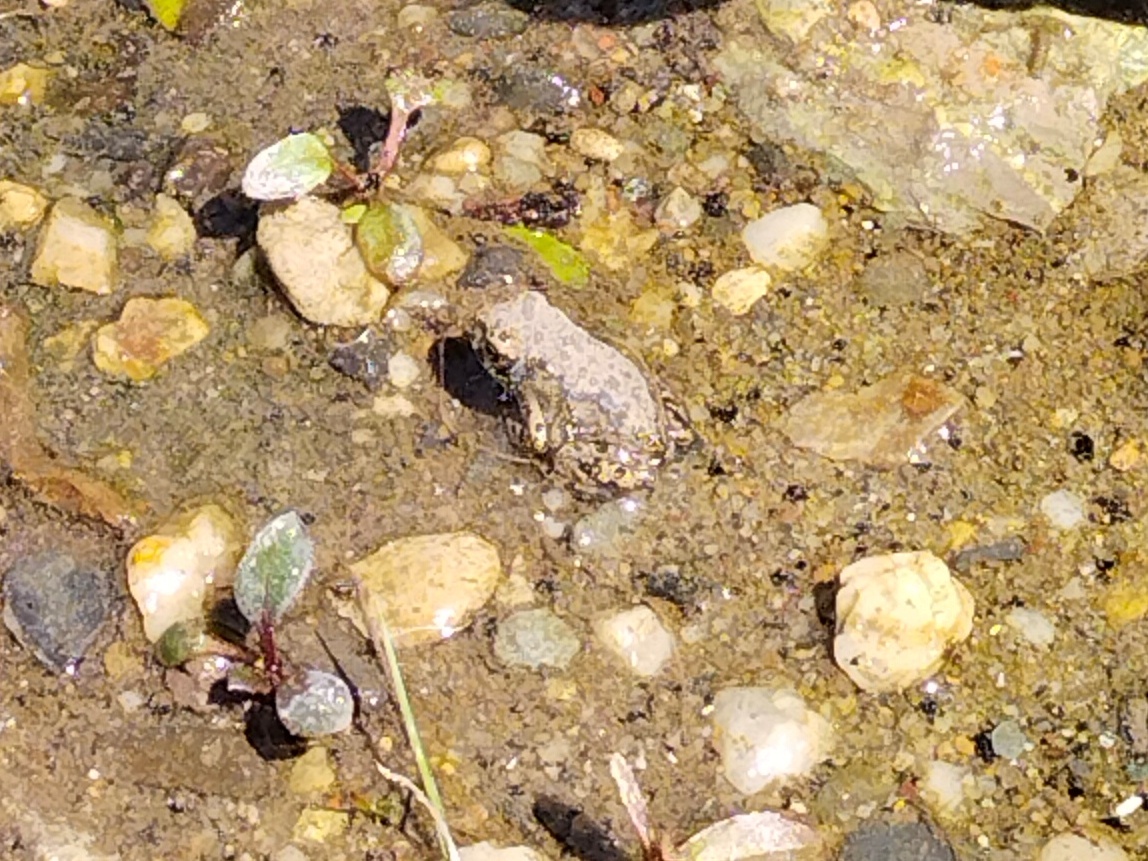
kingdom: Animalia
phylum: Chordata
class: Amphibia
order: Anura
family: Bufonidae
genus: Bufotes
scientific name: Bufotes viridis
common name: European green toad
